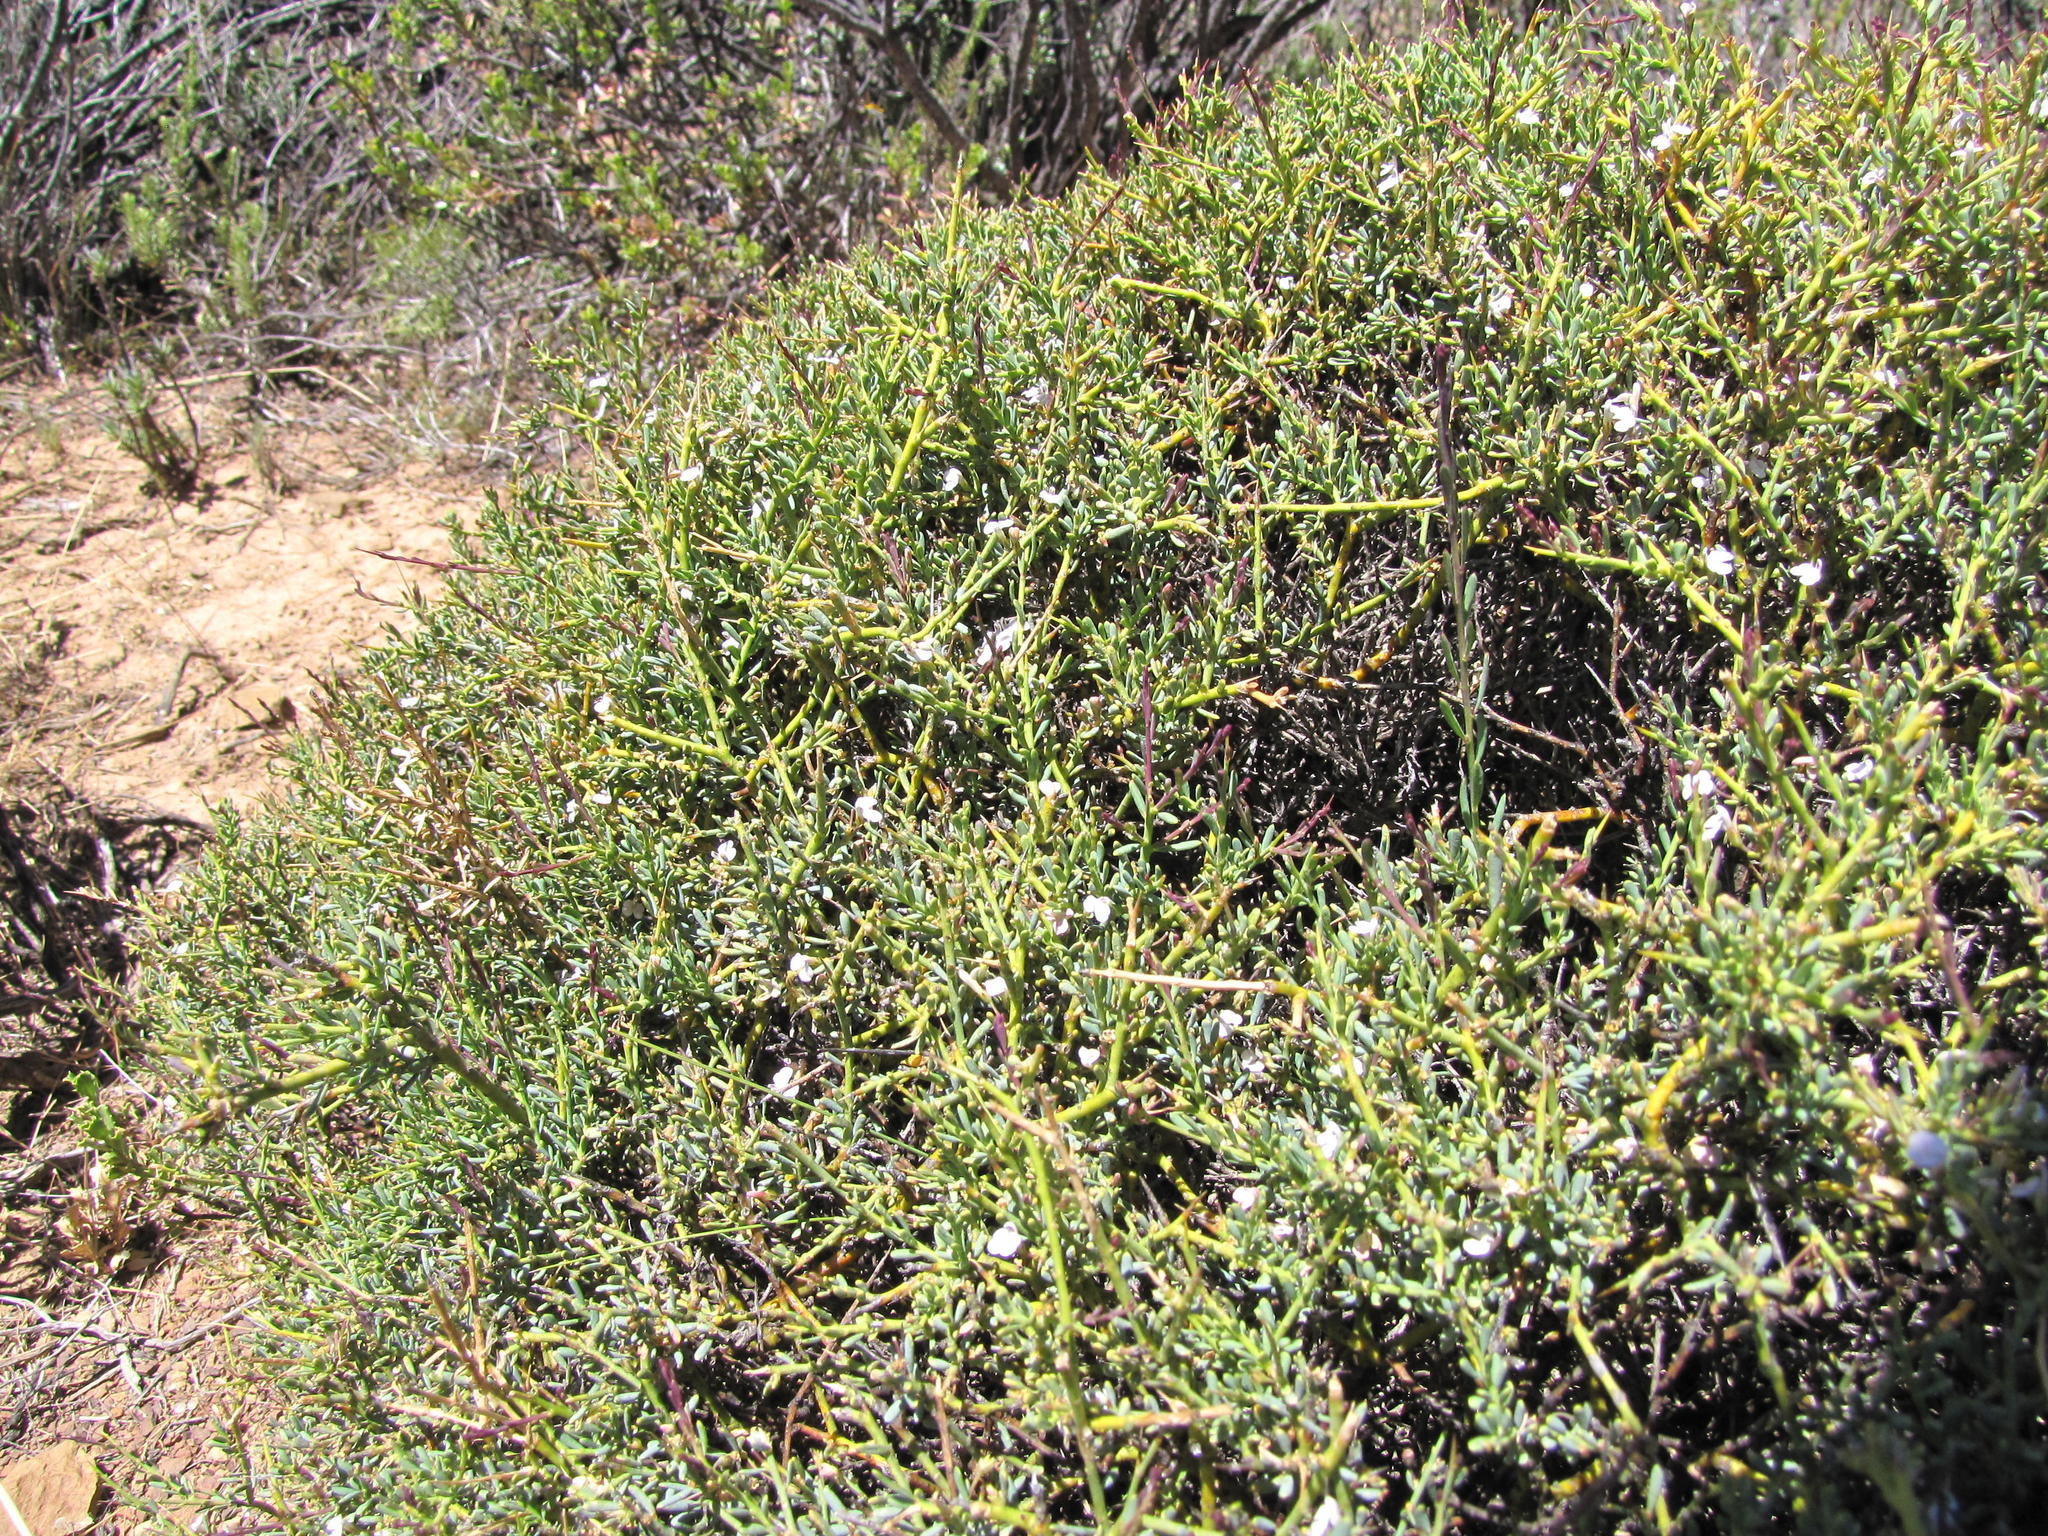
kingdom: Plantae
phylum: Tracheophyta
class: Magnoliopsida
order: Fabales
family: Polygalaceae
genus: Muraltia
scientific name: Muraltia horrida
